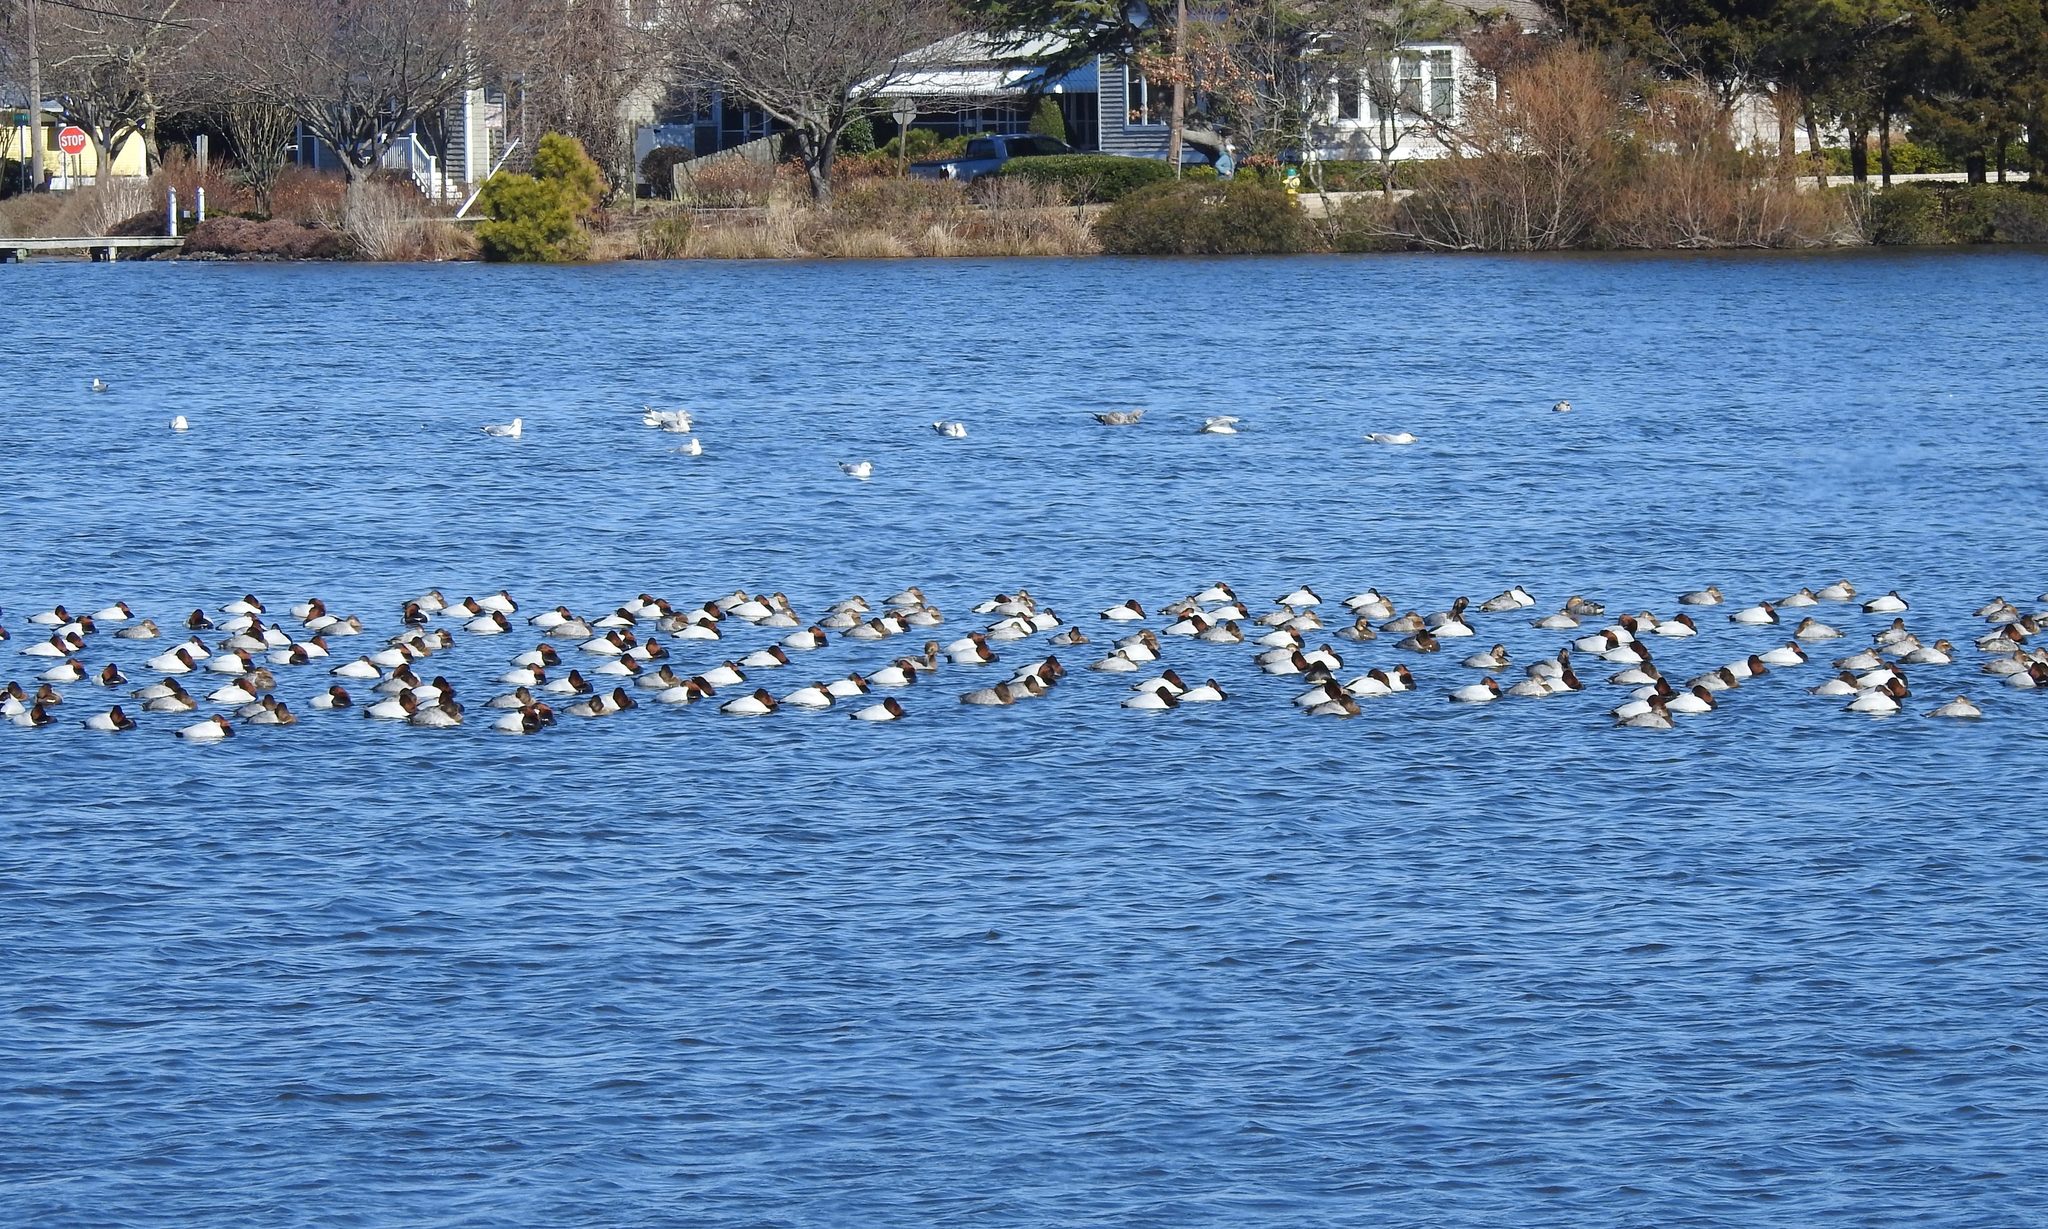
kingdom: Animalia
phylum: Chordata
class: Aves
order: Anseriformes
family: Anatidae
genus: Aythya
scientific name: Aythya valisineria
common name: Canvasback
